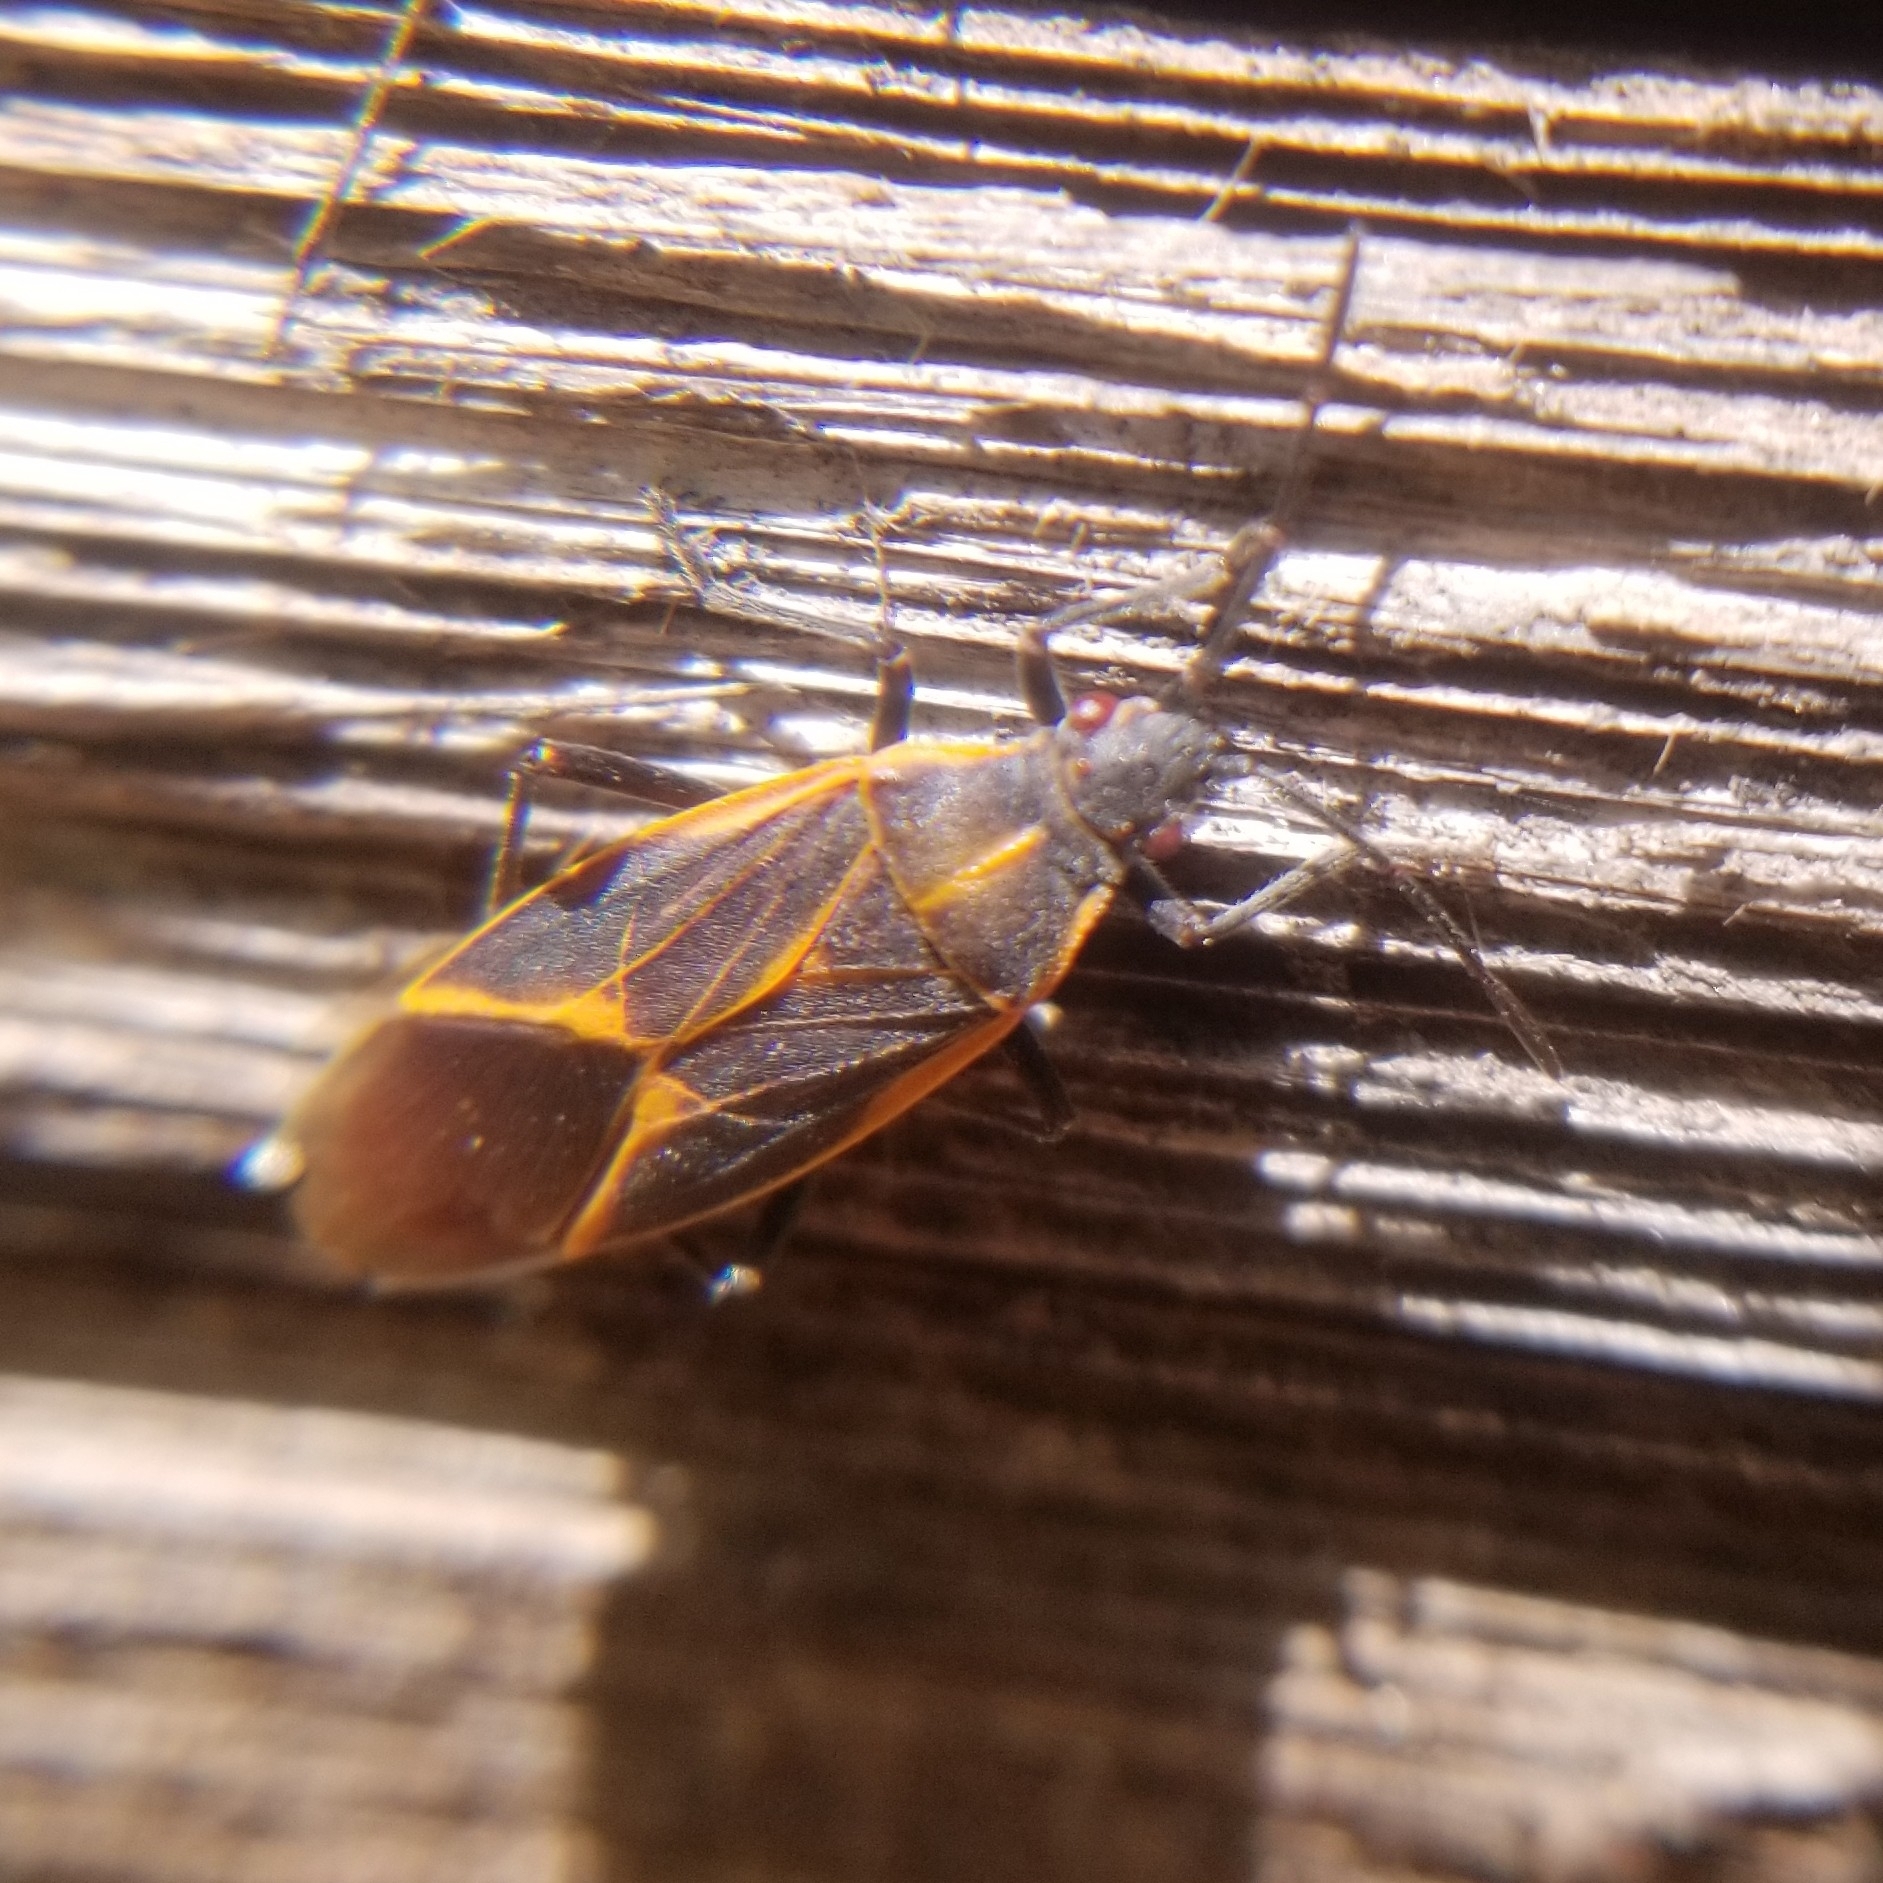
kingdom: Animalia
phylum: Arthropoda
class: Insecta
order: Hemiptera
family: Rhopalidae
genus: Boisea
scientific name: Boisea trivittata
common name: Boxelder bug
